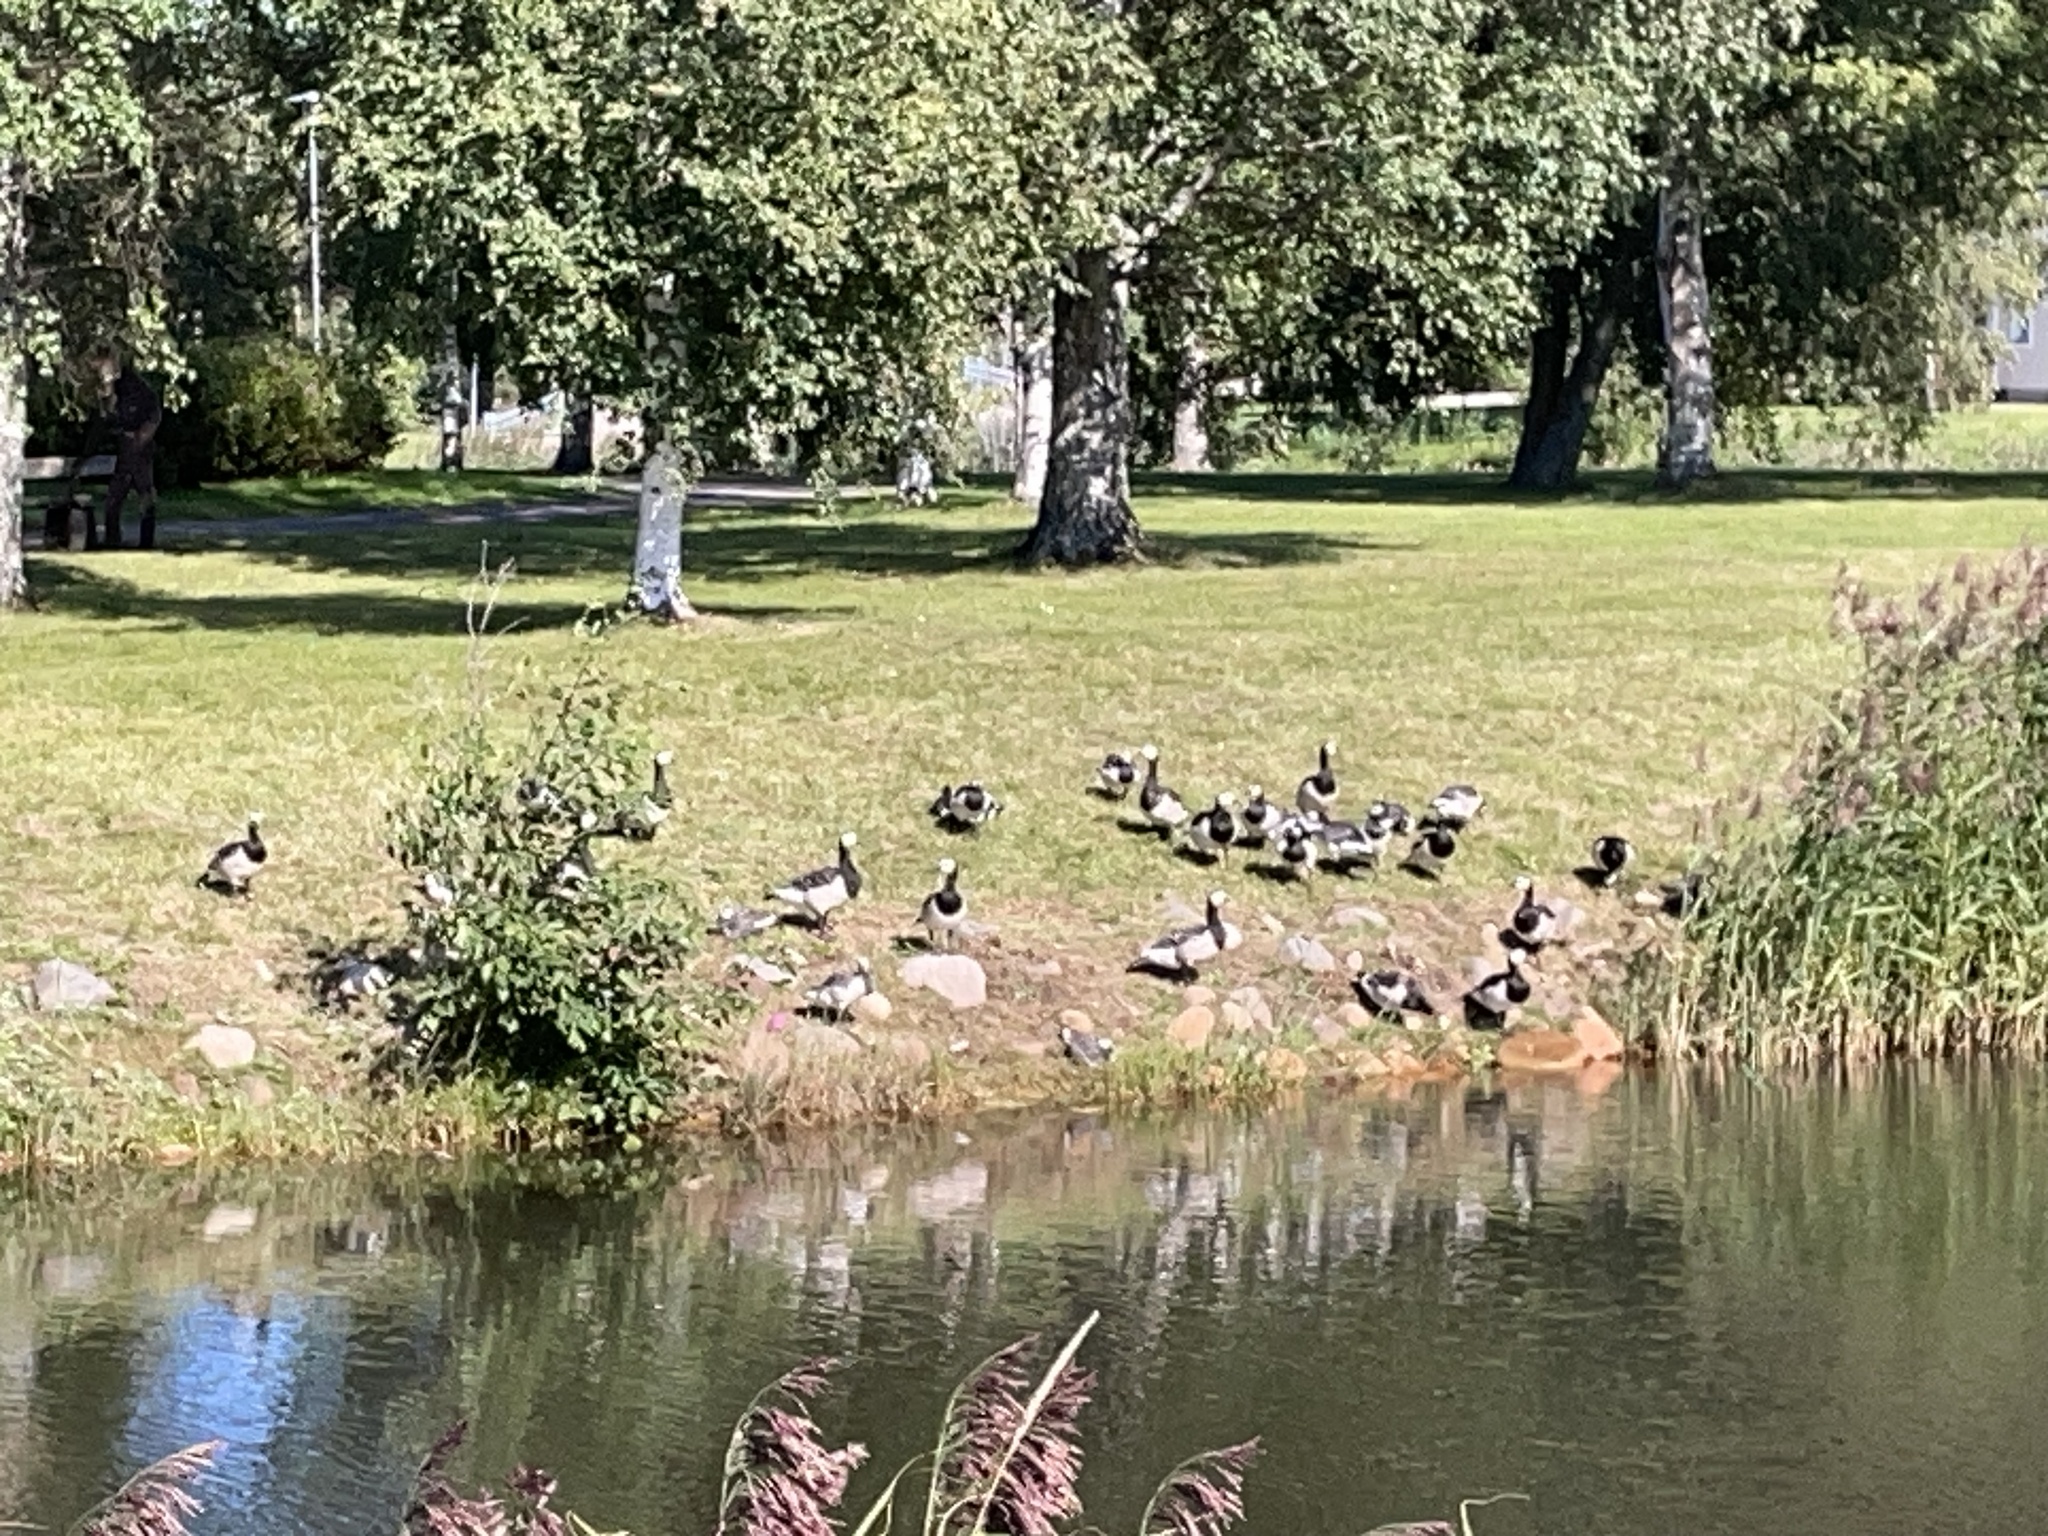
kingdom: Animalia
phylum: Chordata
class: Aves
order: Anseriformes
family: Anatidae
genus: Branta
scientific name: Branta leucopsis
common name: Barnacle goose
